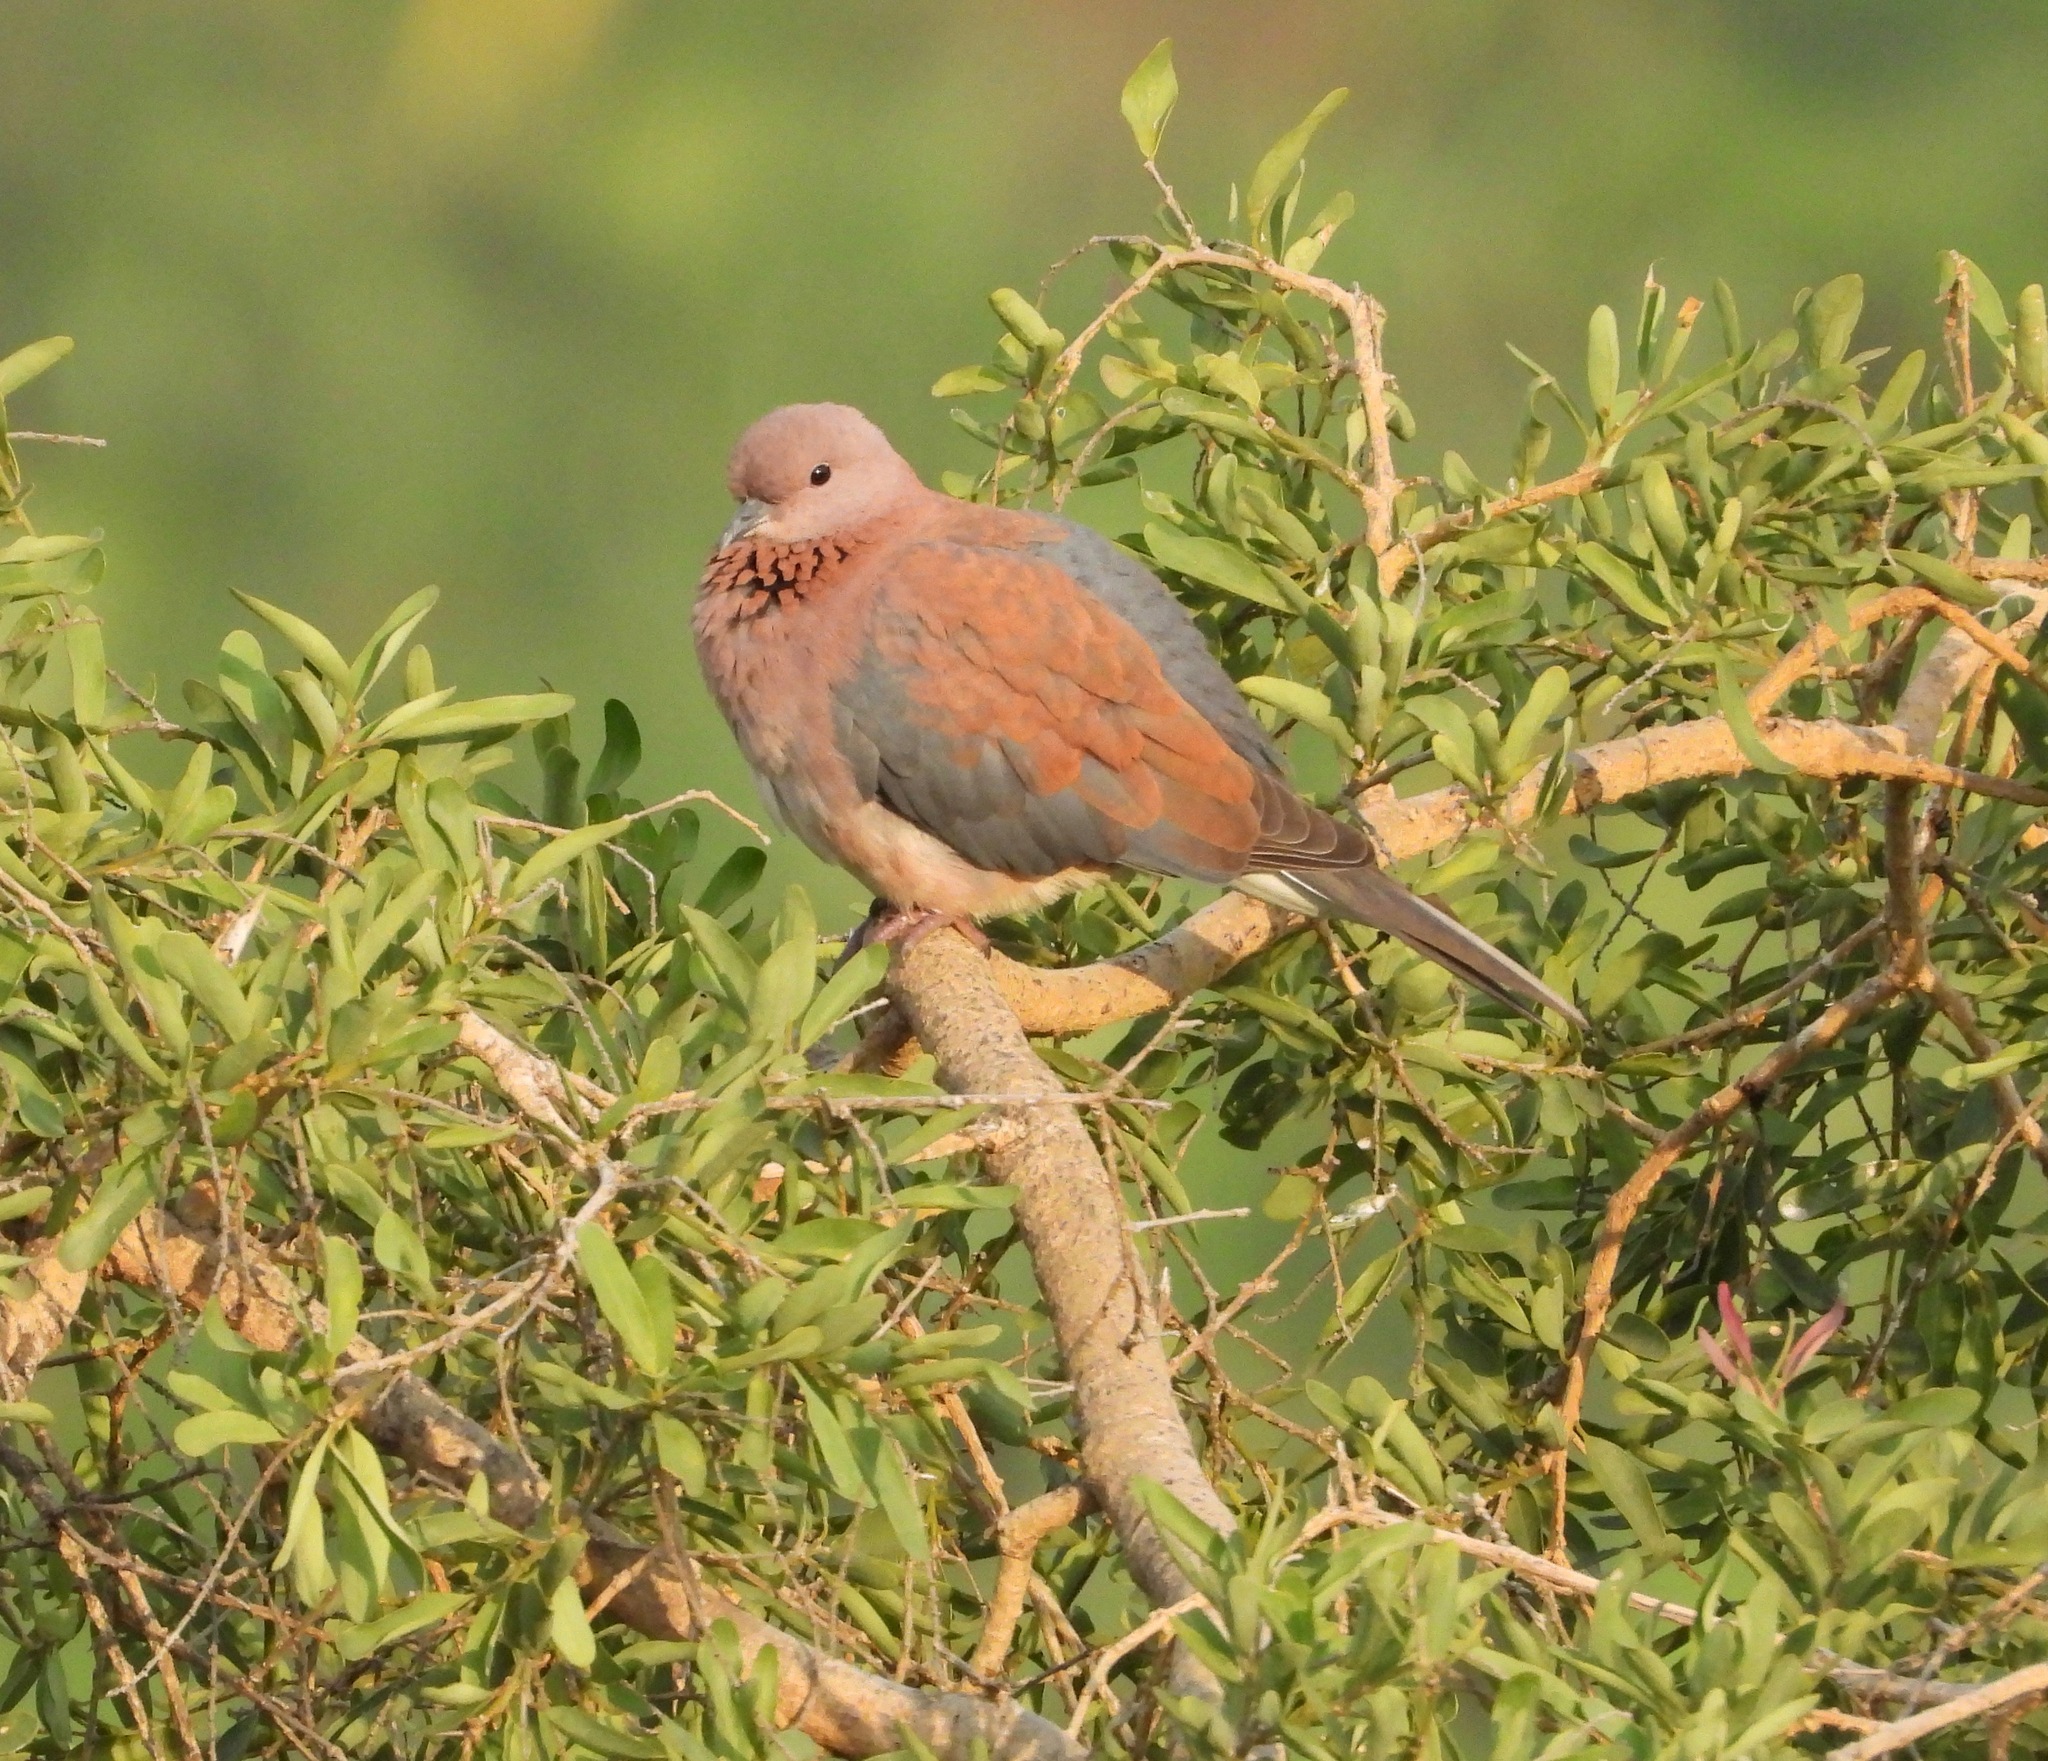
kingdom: Animalia
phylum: Chordata
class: Aves
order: Columbiformes
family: Columbidae
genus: Spilopelia
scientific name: Spilopelia senegalensis
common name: Laughing dove
